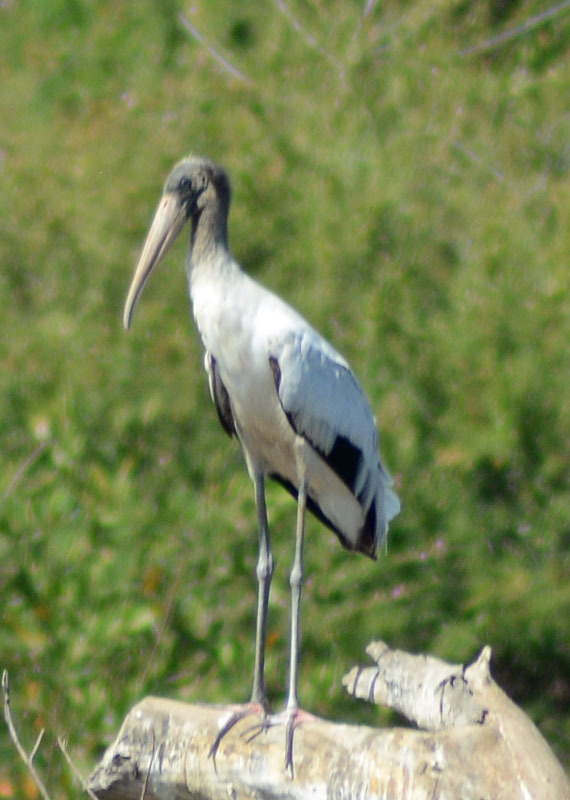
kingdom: Animalia
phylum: Chordata
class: Aves
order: Ciconiiformes
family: Ciconiidae
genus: Mycteria
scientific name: Mycteria americana
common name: Wood stork
